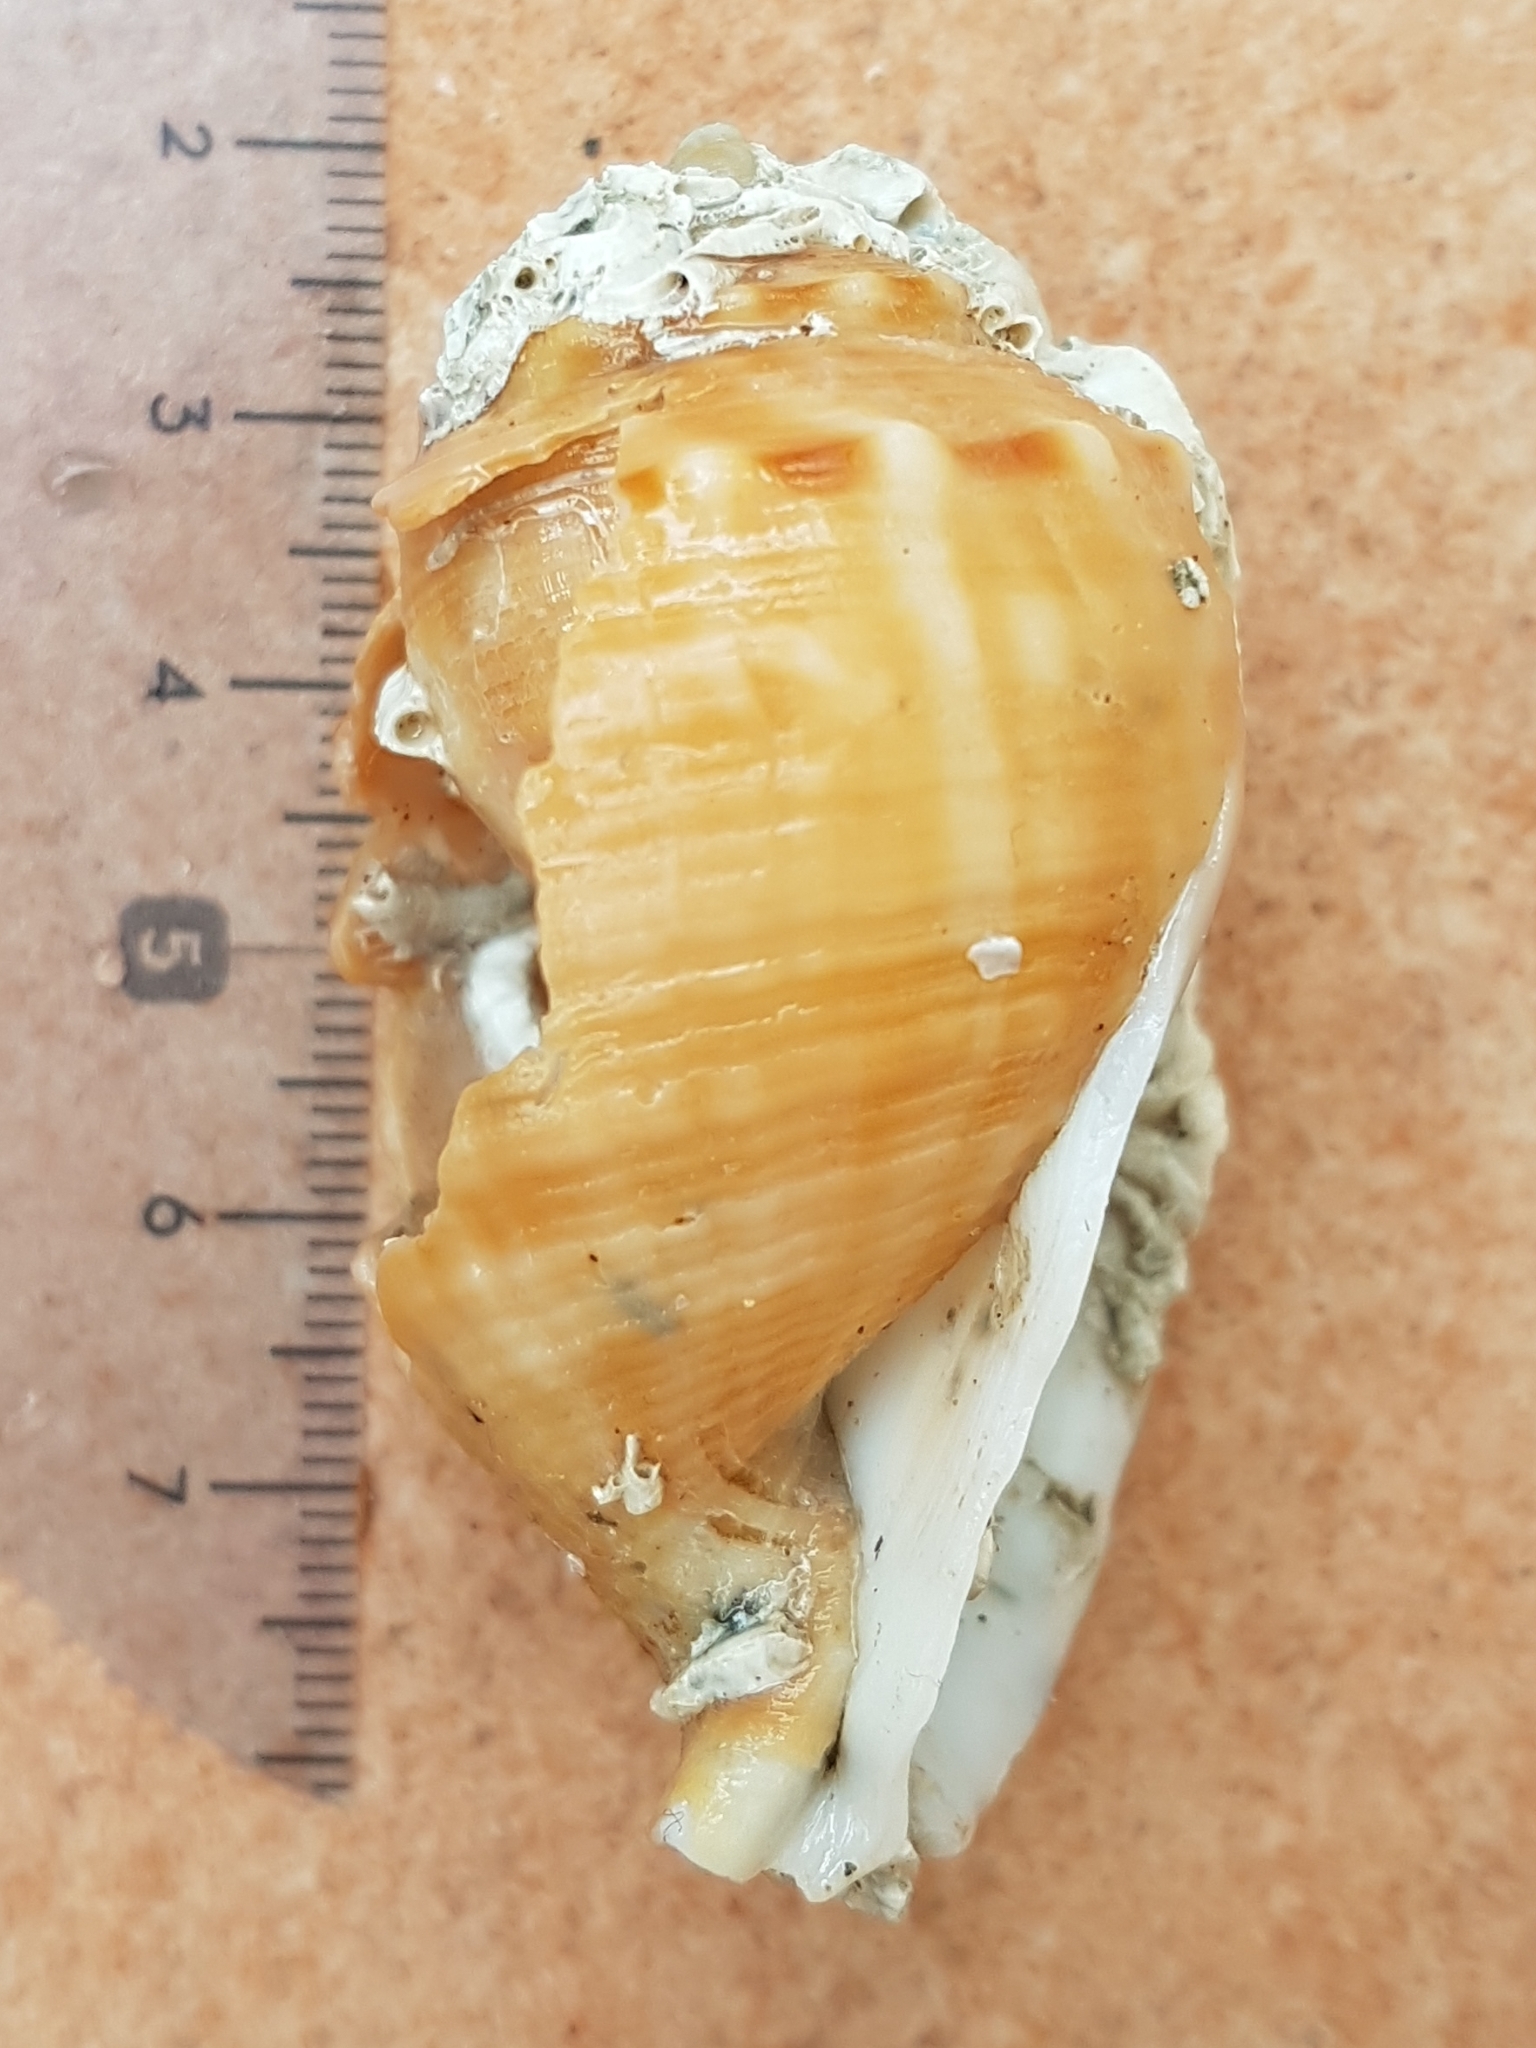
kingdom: Animalia
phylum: Mollusca
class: Gastropoda
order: Littorinimorpha
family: Cassidae
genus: Galeodea
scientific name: Galeodea echinophora
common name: Mediterranean spiny bonnet
